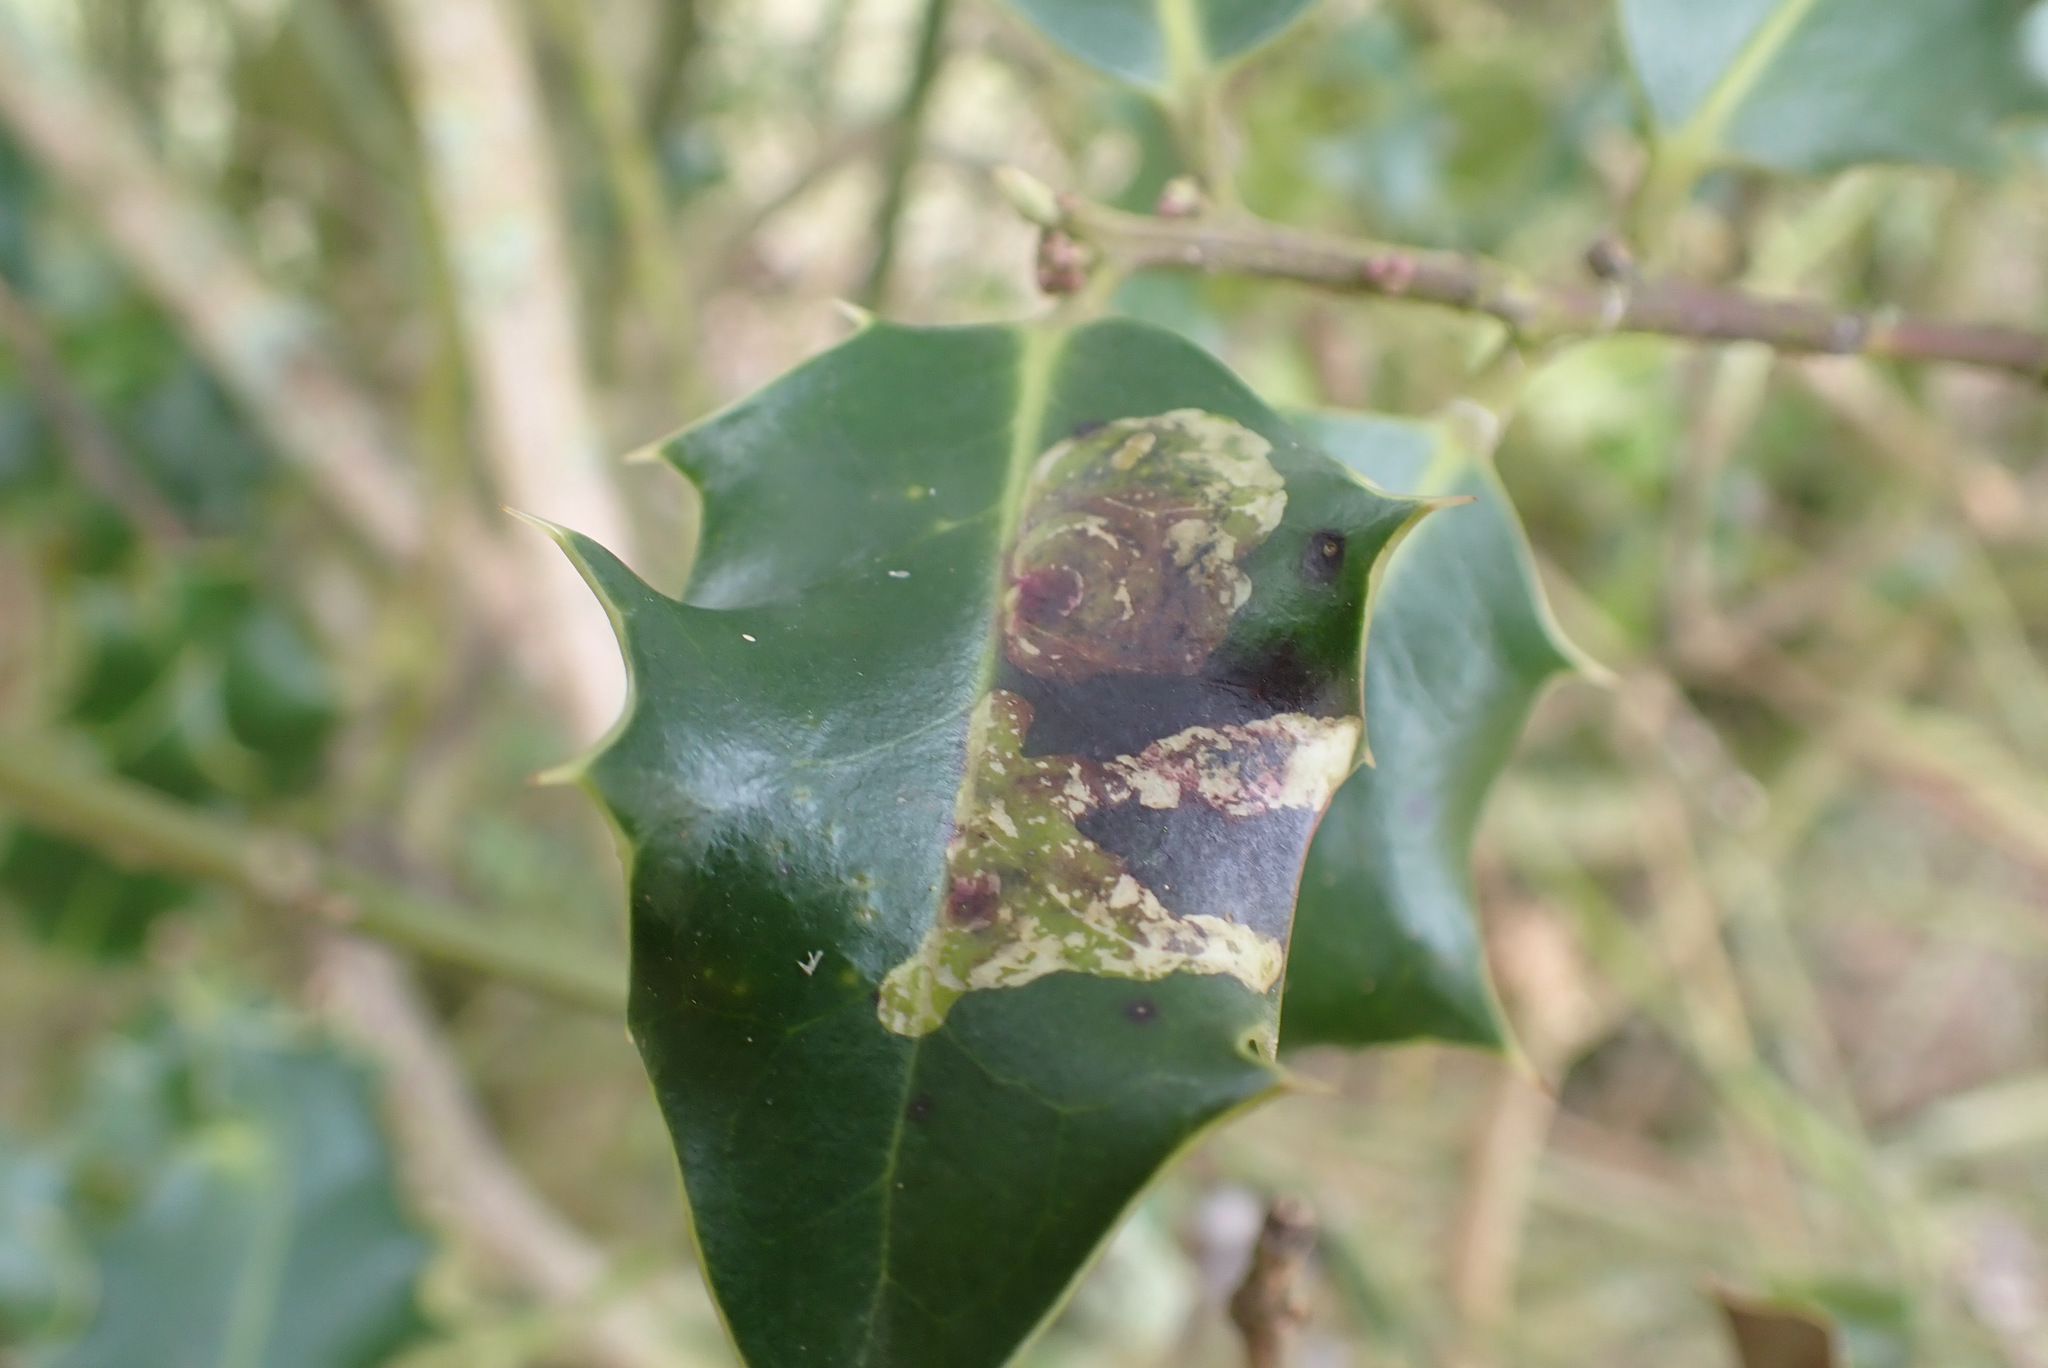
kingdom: Animalia
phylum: Arthropoda
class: Insecta
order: Diptera
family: Agromyzidae
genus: Phytomyza
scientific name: Phytomyza ilicis
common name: Holly leafminer
